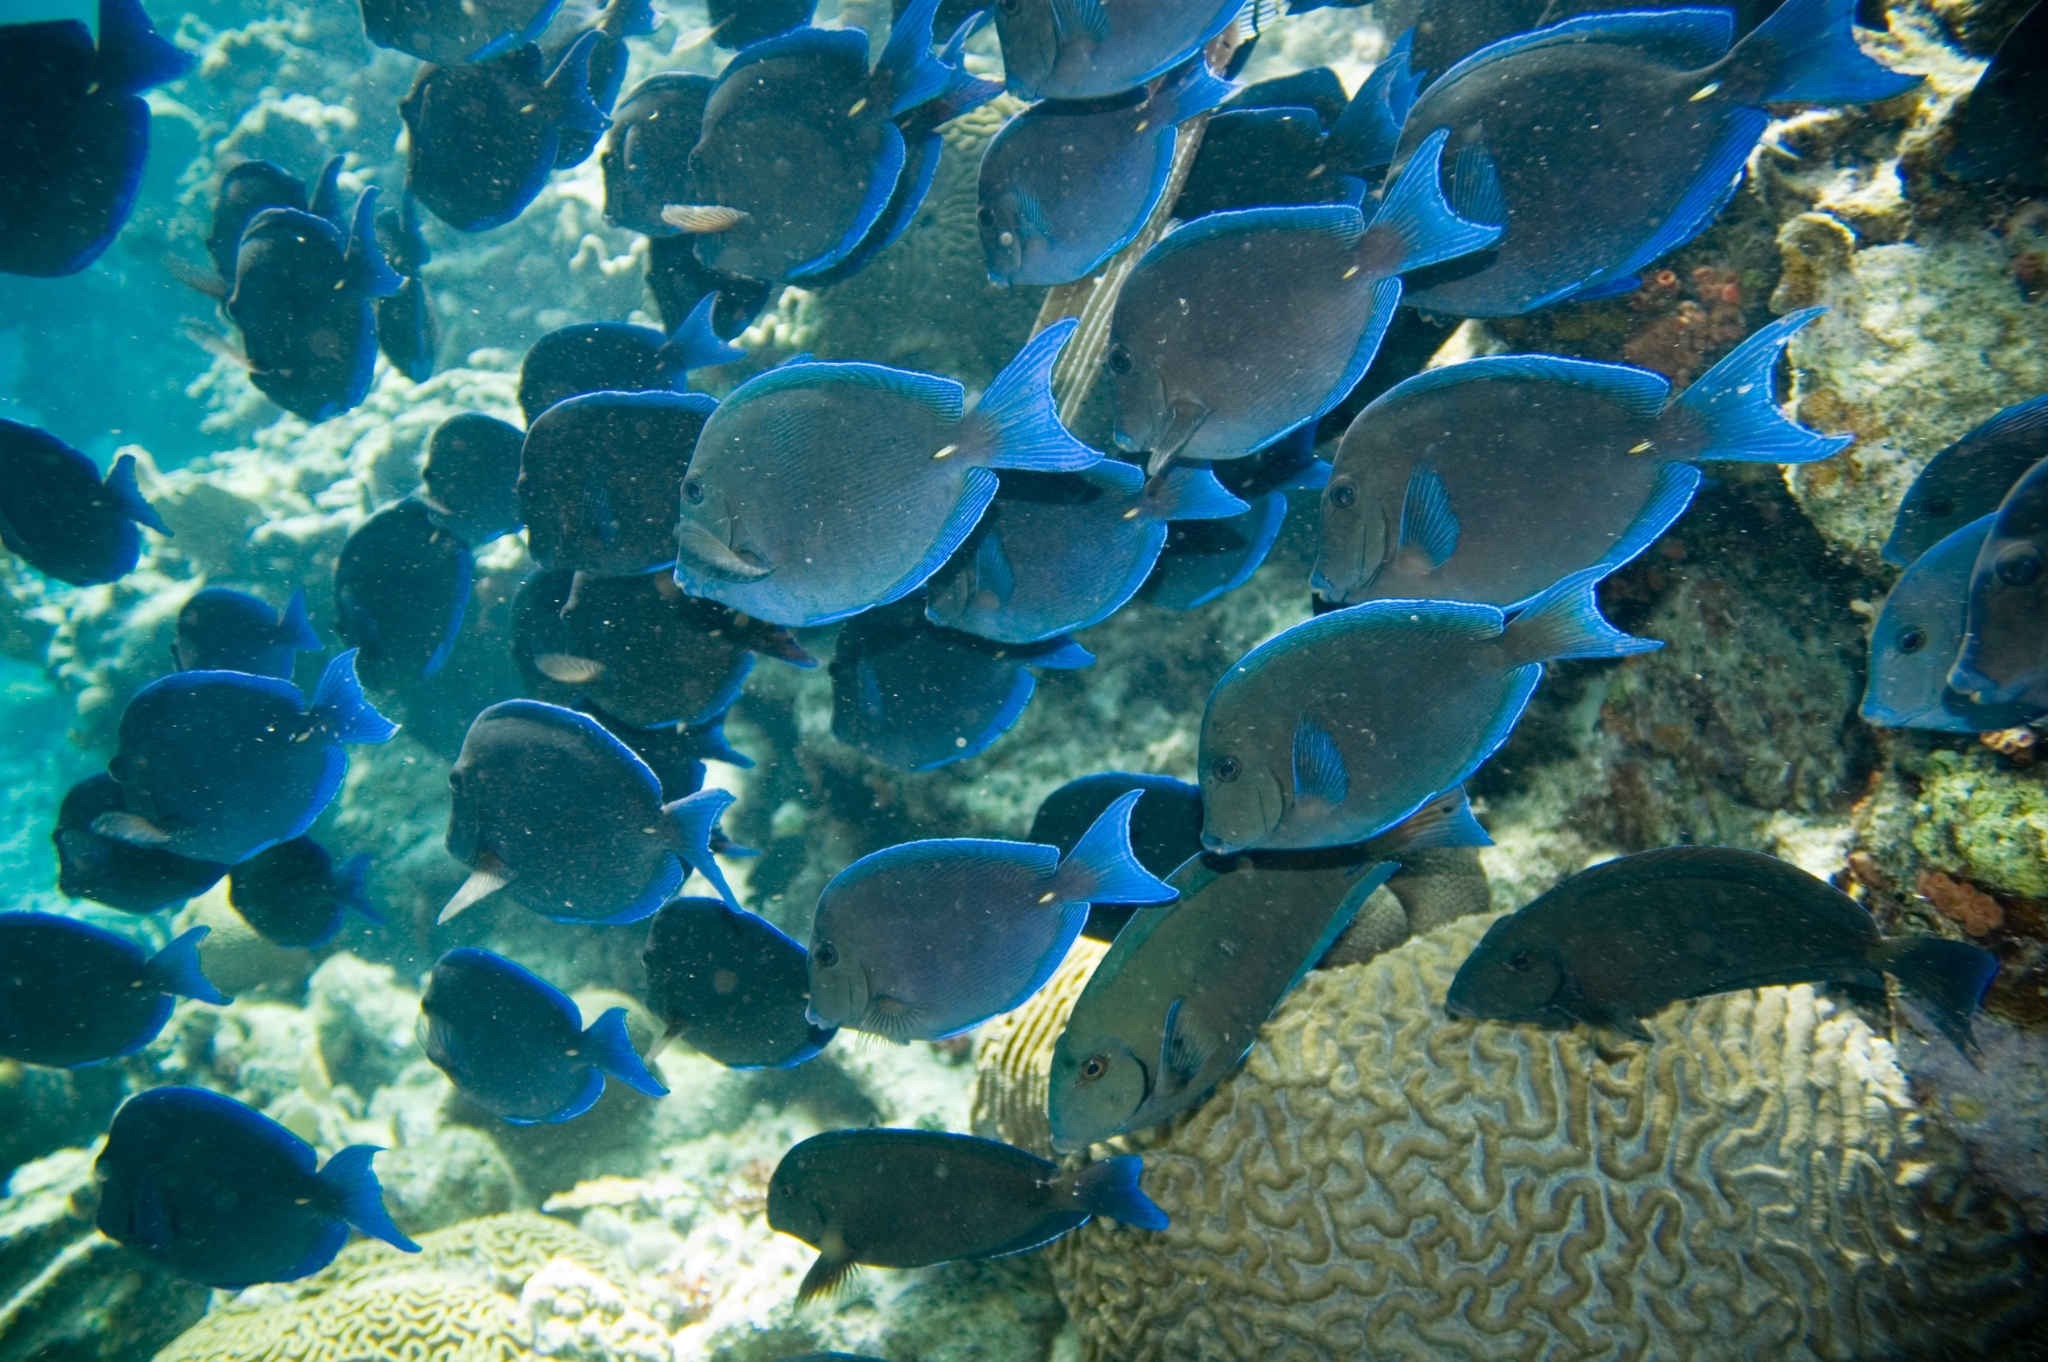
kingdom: Animalia
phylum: Chordata
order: Perciformes
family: Acanthuridae
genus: Acanthurus
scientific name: Acanthurus coeruleus
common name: Blue tang
